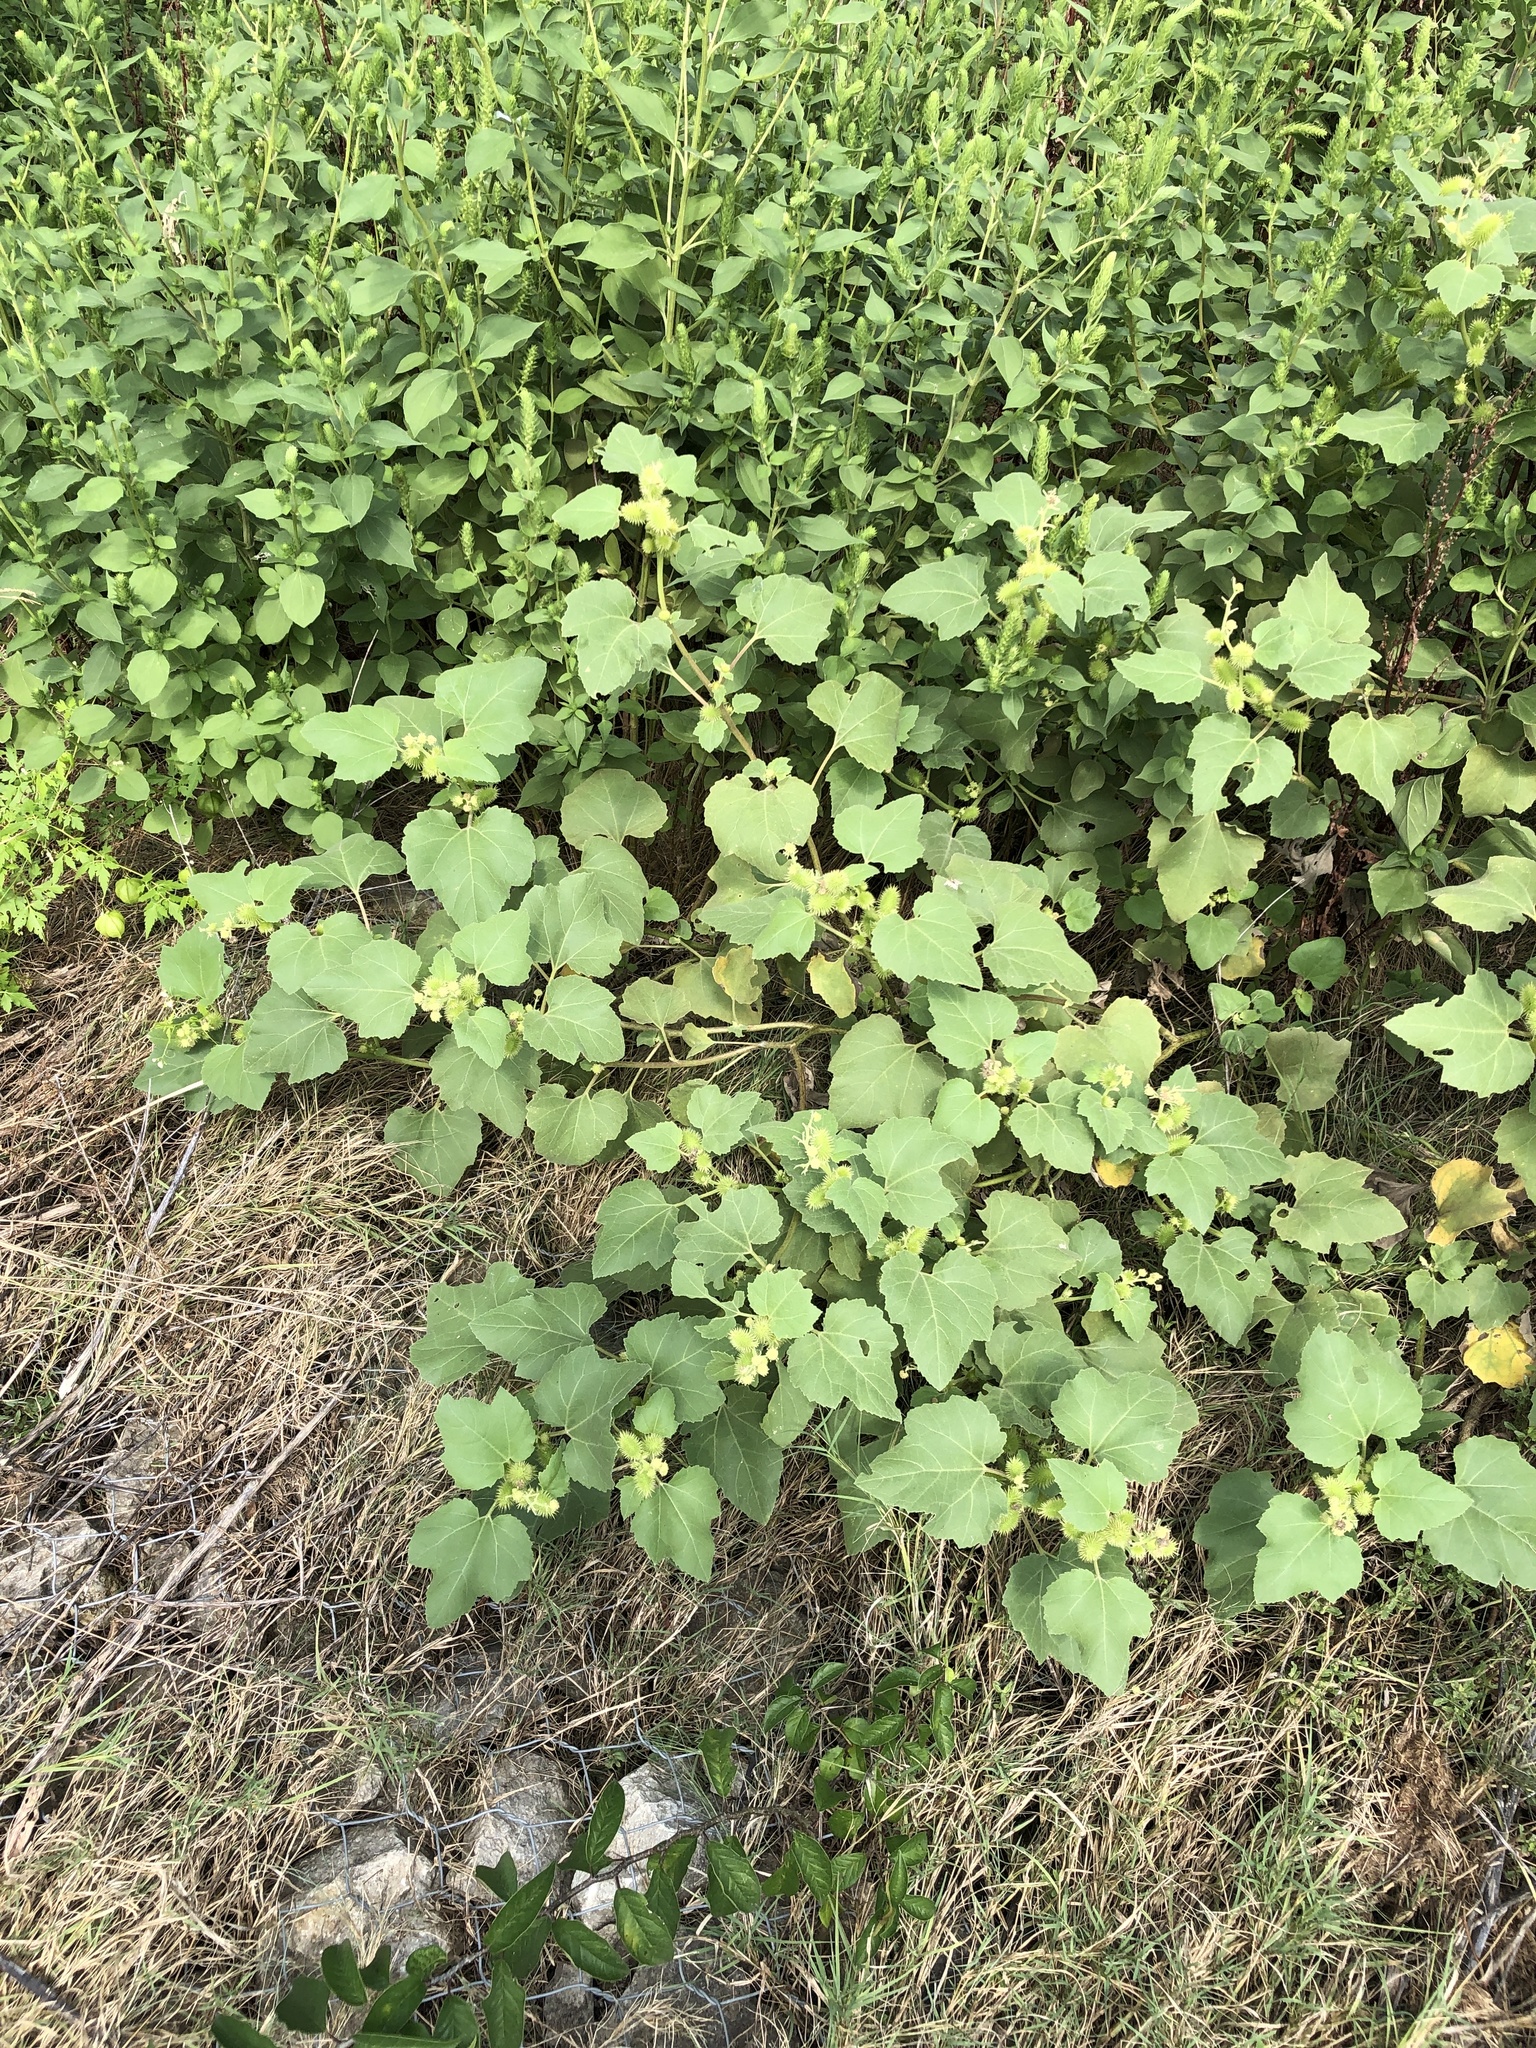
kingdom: Plantae
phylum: Tracheophyta
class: Magnoliopsida
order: Asterales
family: Asteraceae
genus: Xanthium
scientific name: Xanthium strumarium
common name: Rough cocklebur
